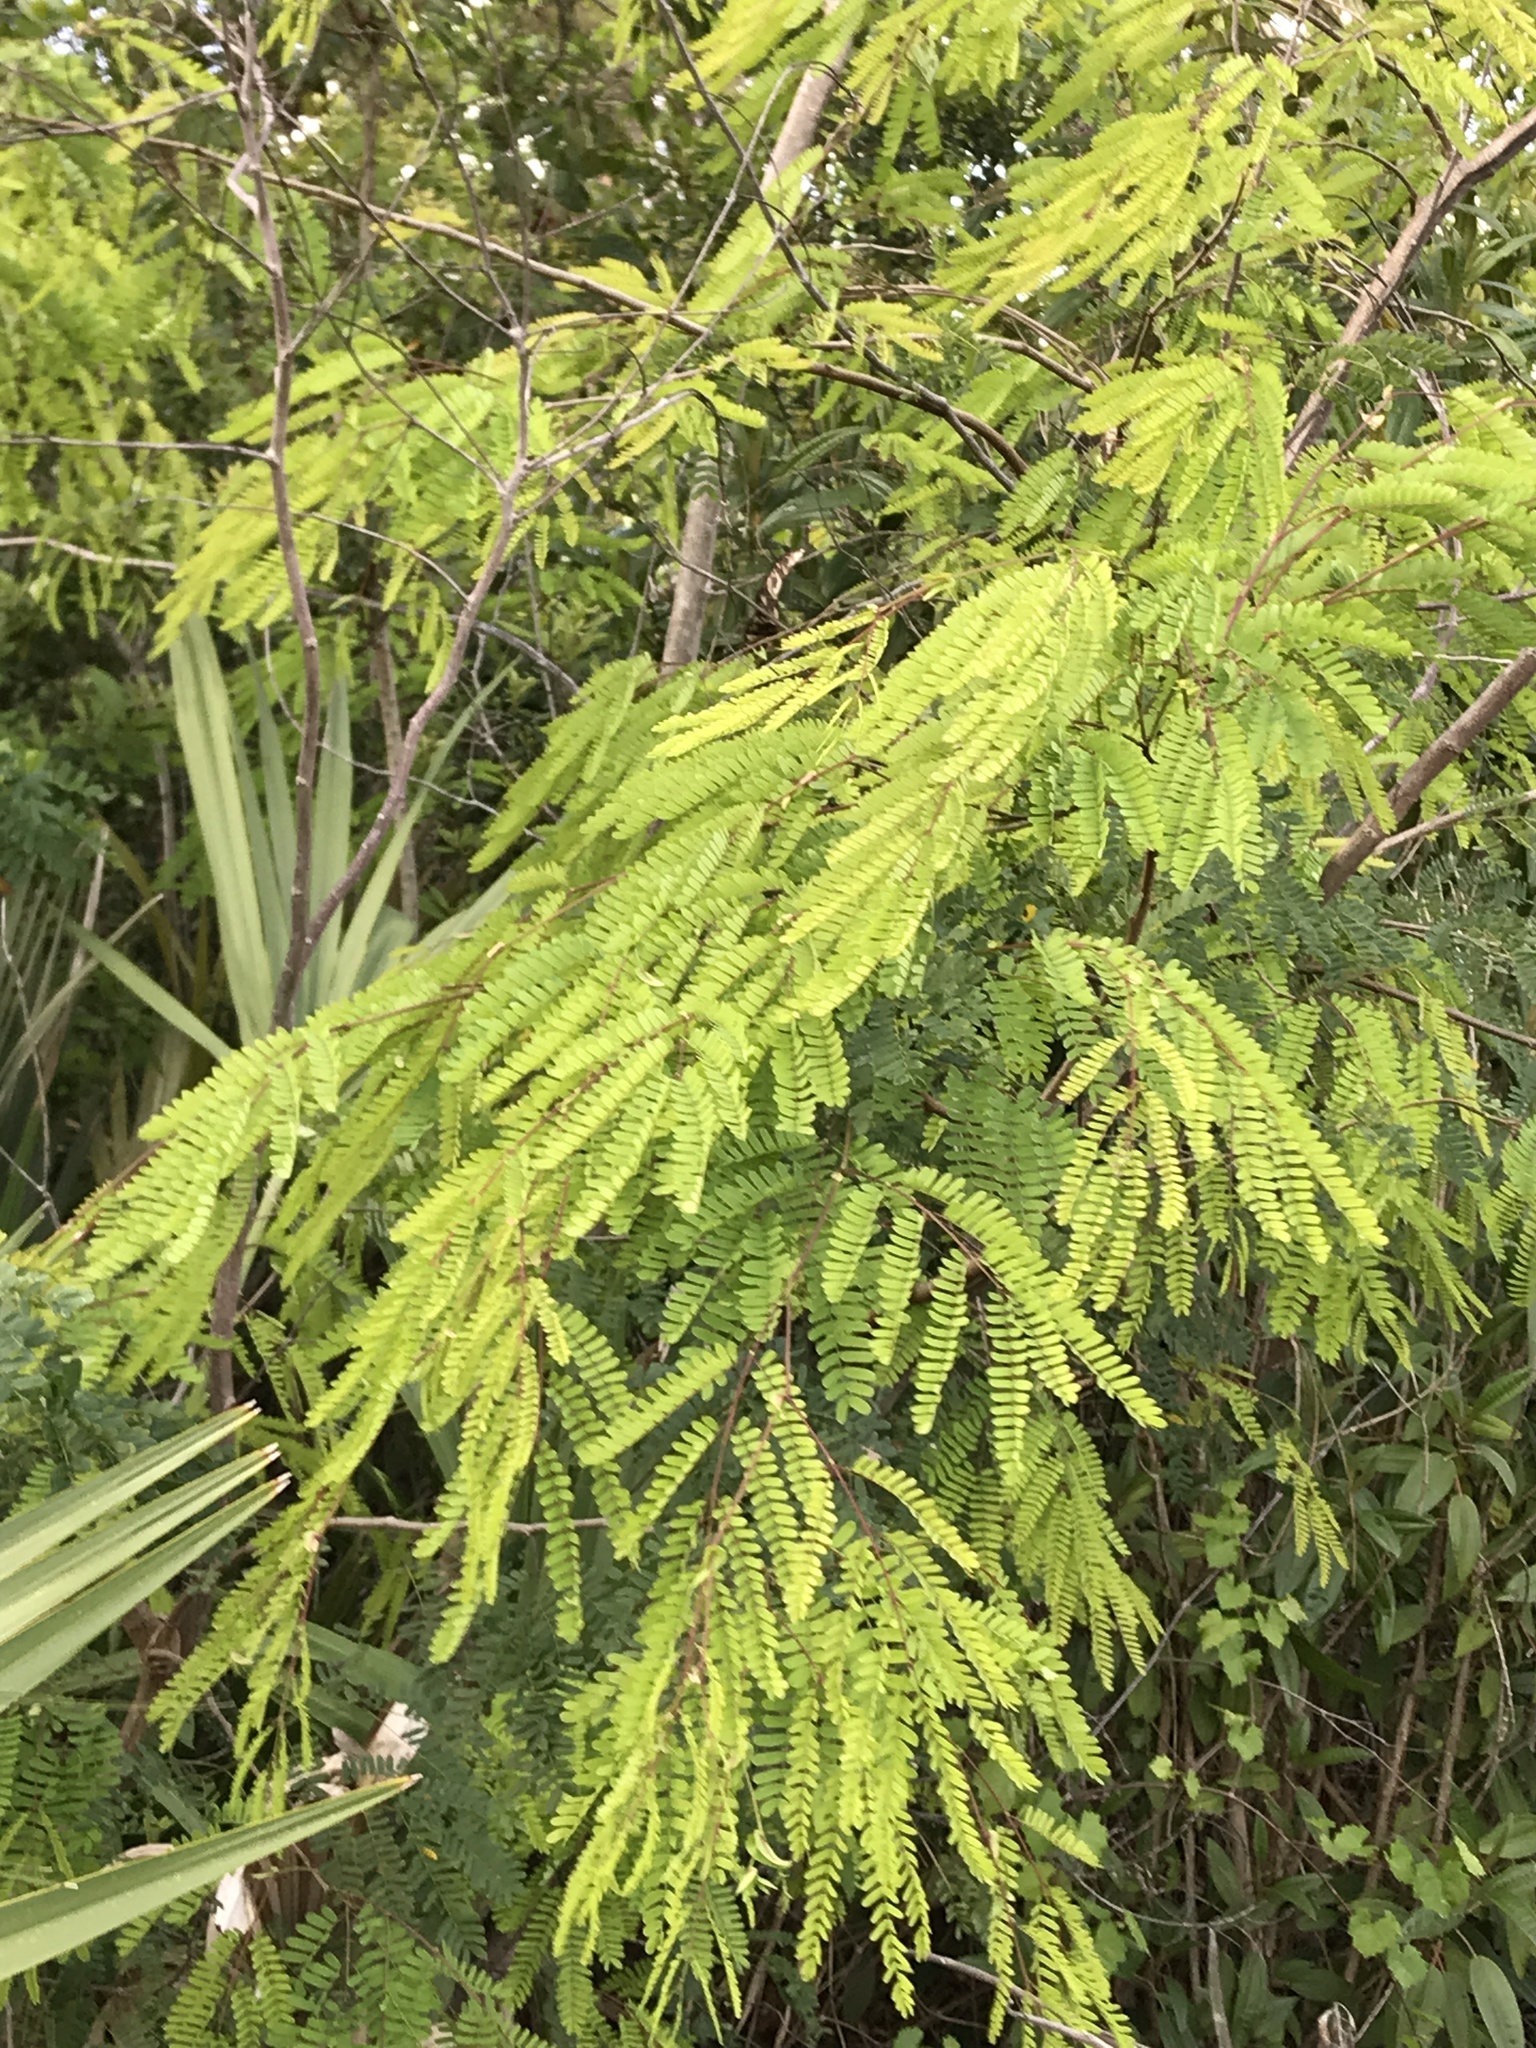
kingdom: Plantae
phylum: Tracheophyta
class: Magnoliopsida
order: Fabales
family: Fabaceae
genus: Lysiloma
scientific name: Lysiloma latisiliquum
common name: Wild tamarind
